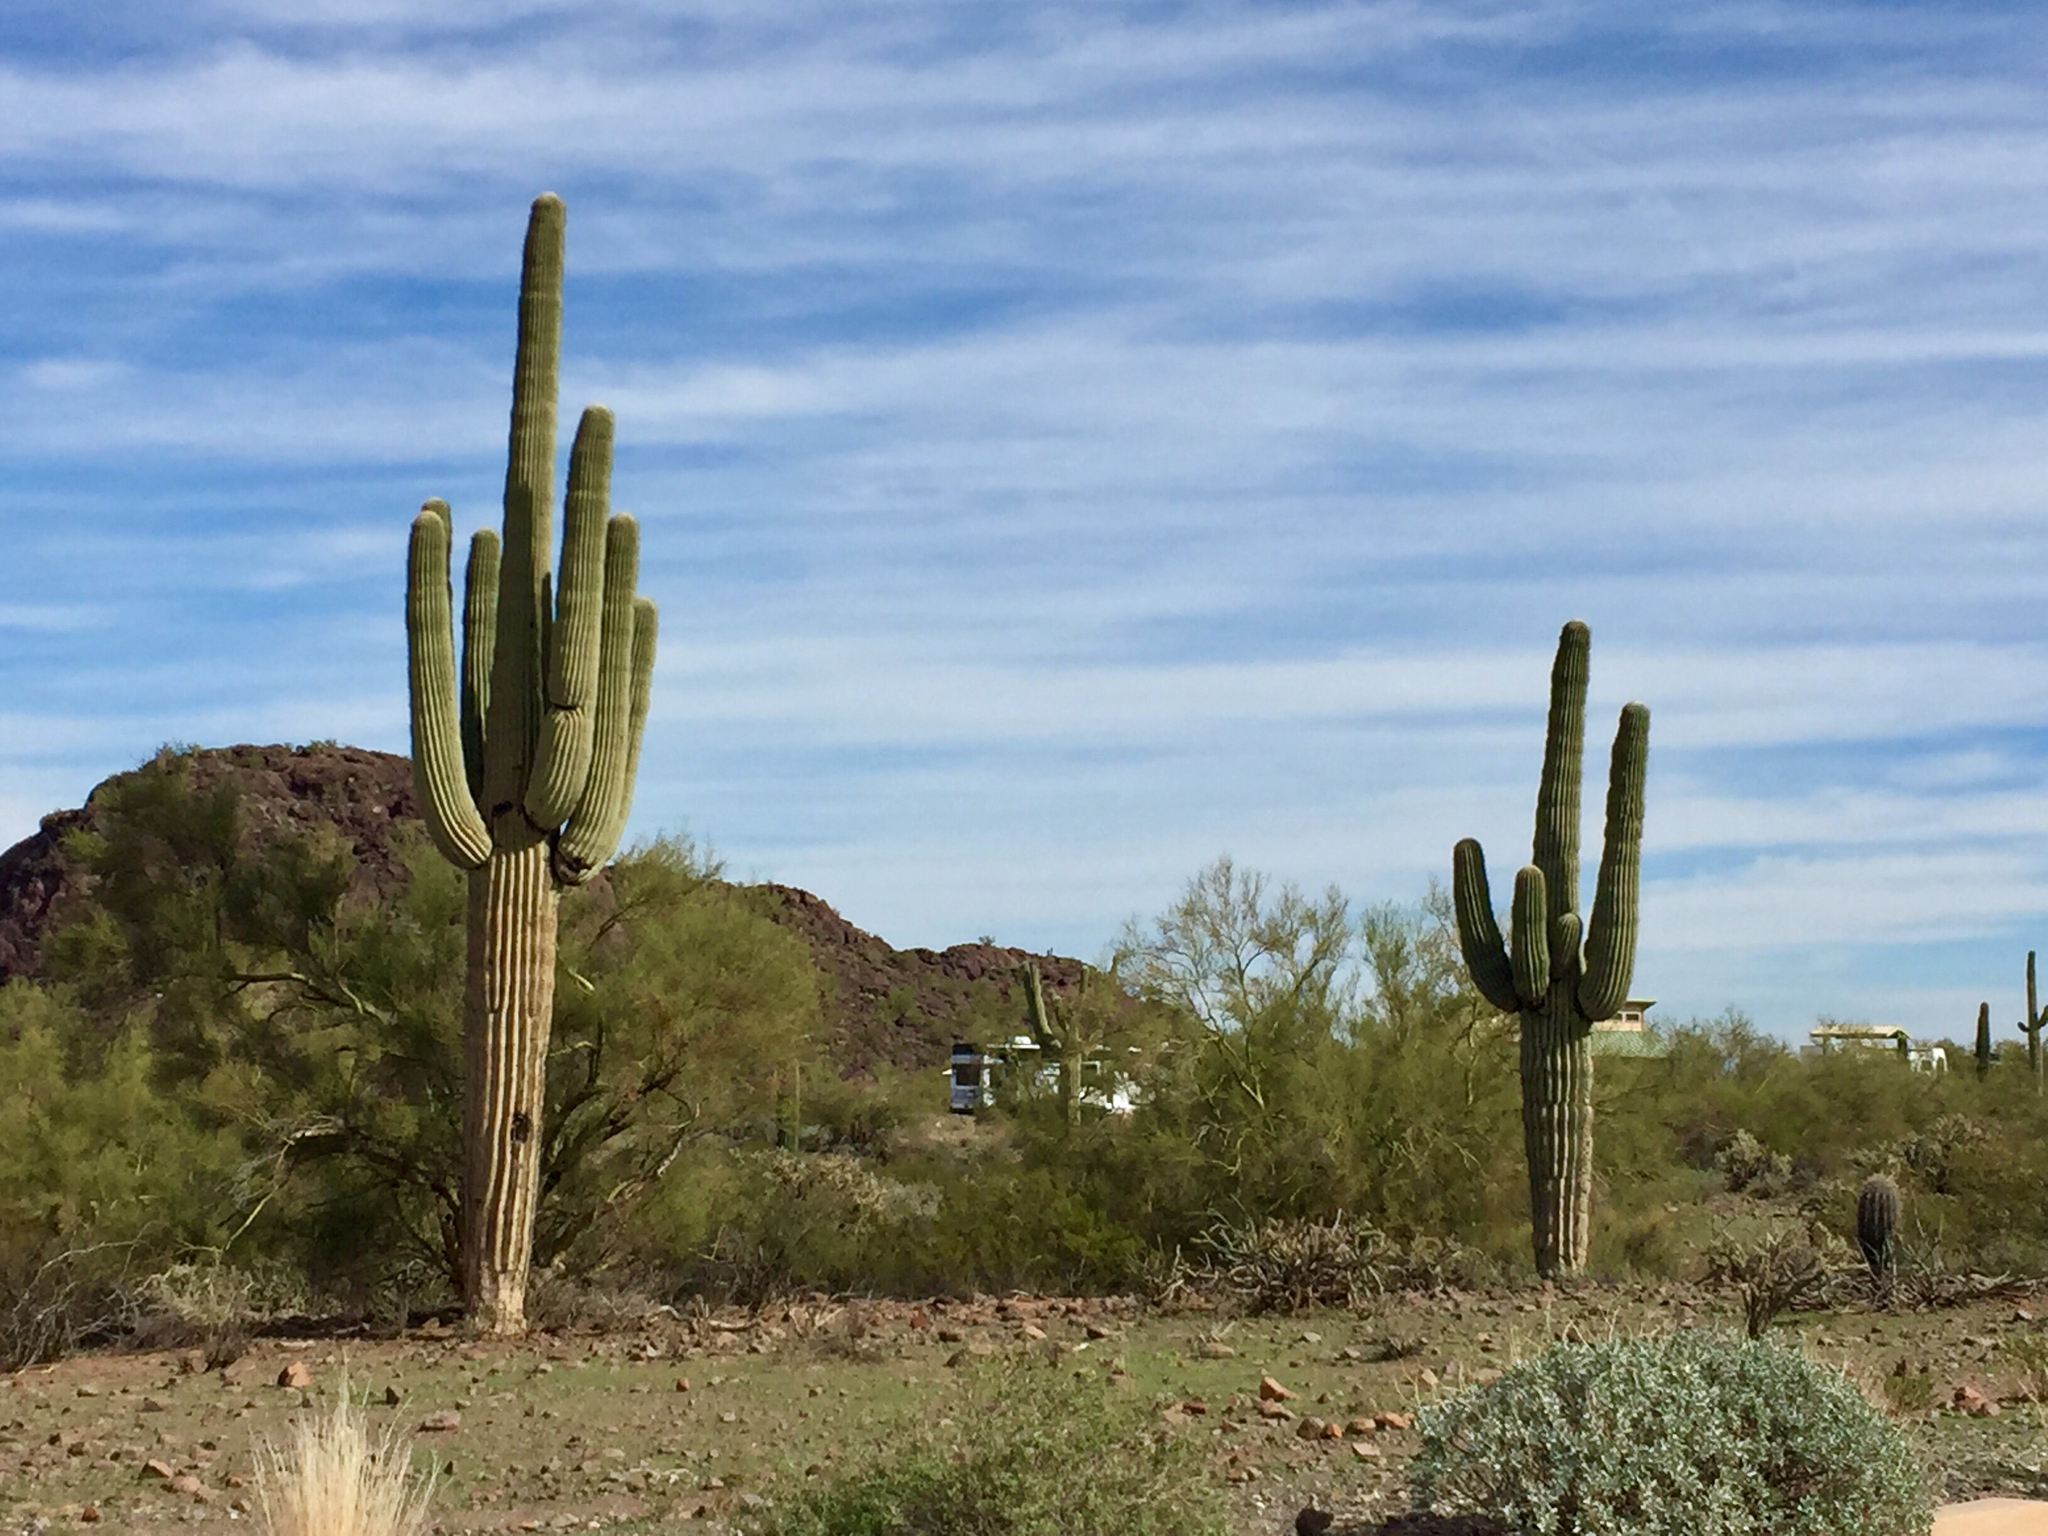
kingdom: Plantae
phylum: Tracheophyta
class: Magnoliopsida
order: Caryophyllales
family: Cactaceae
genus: Carnegiea
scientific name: Carnegiea gigantea
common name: Saguaro
